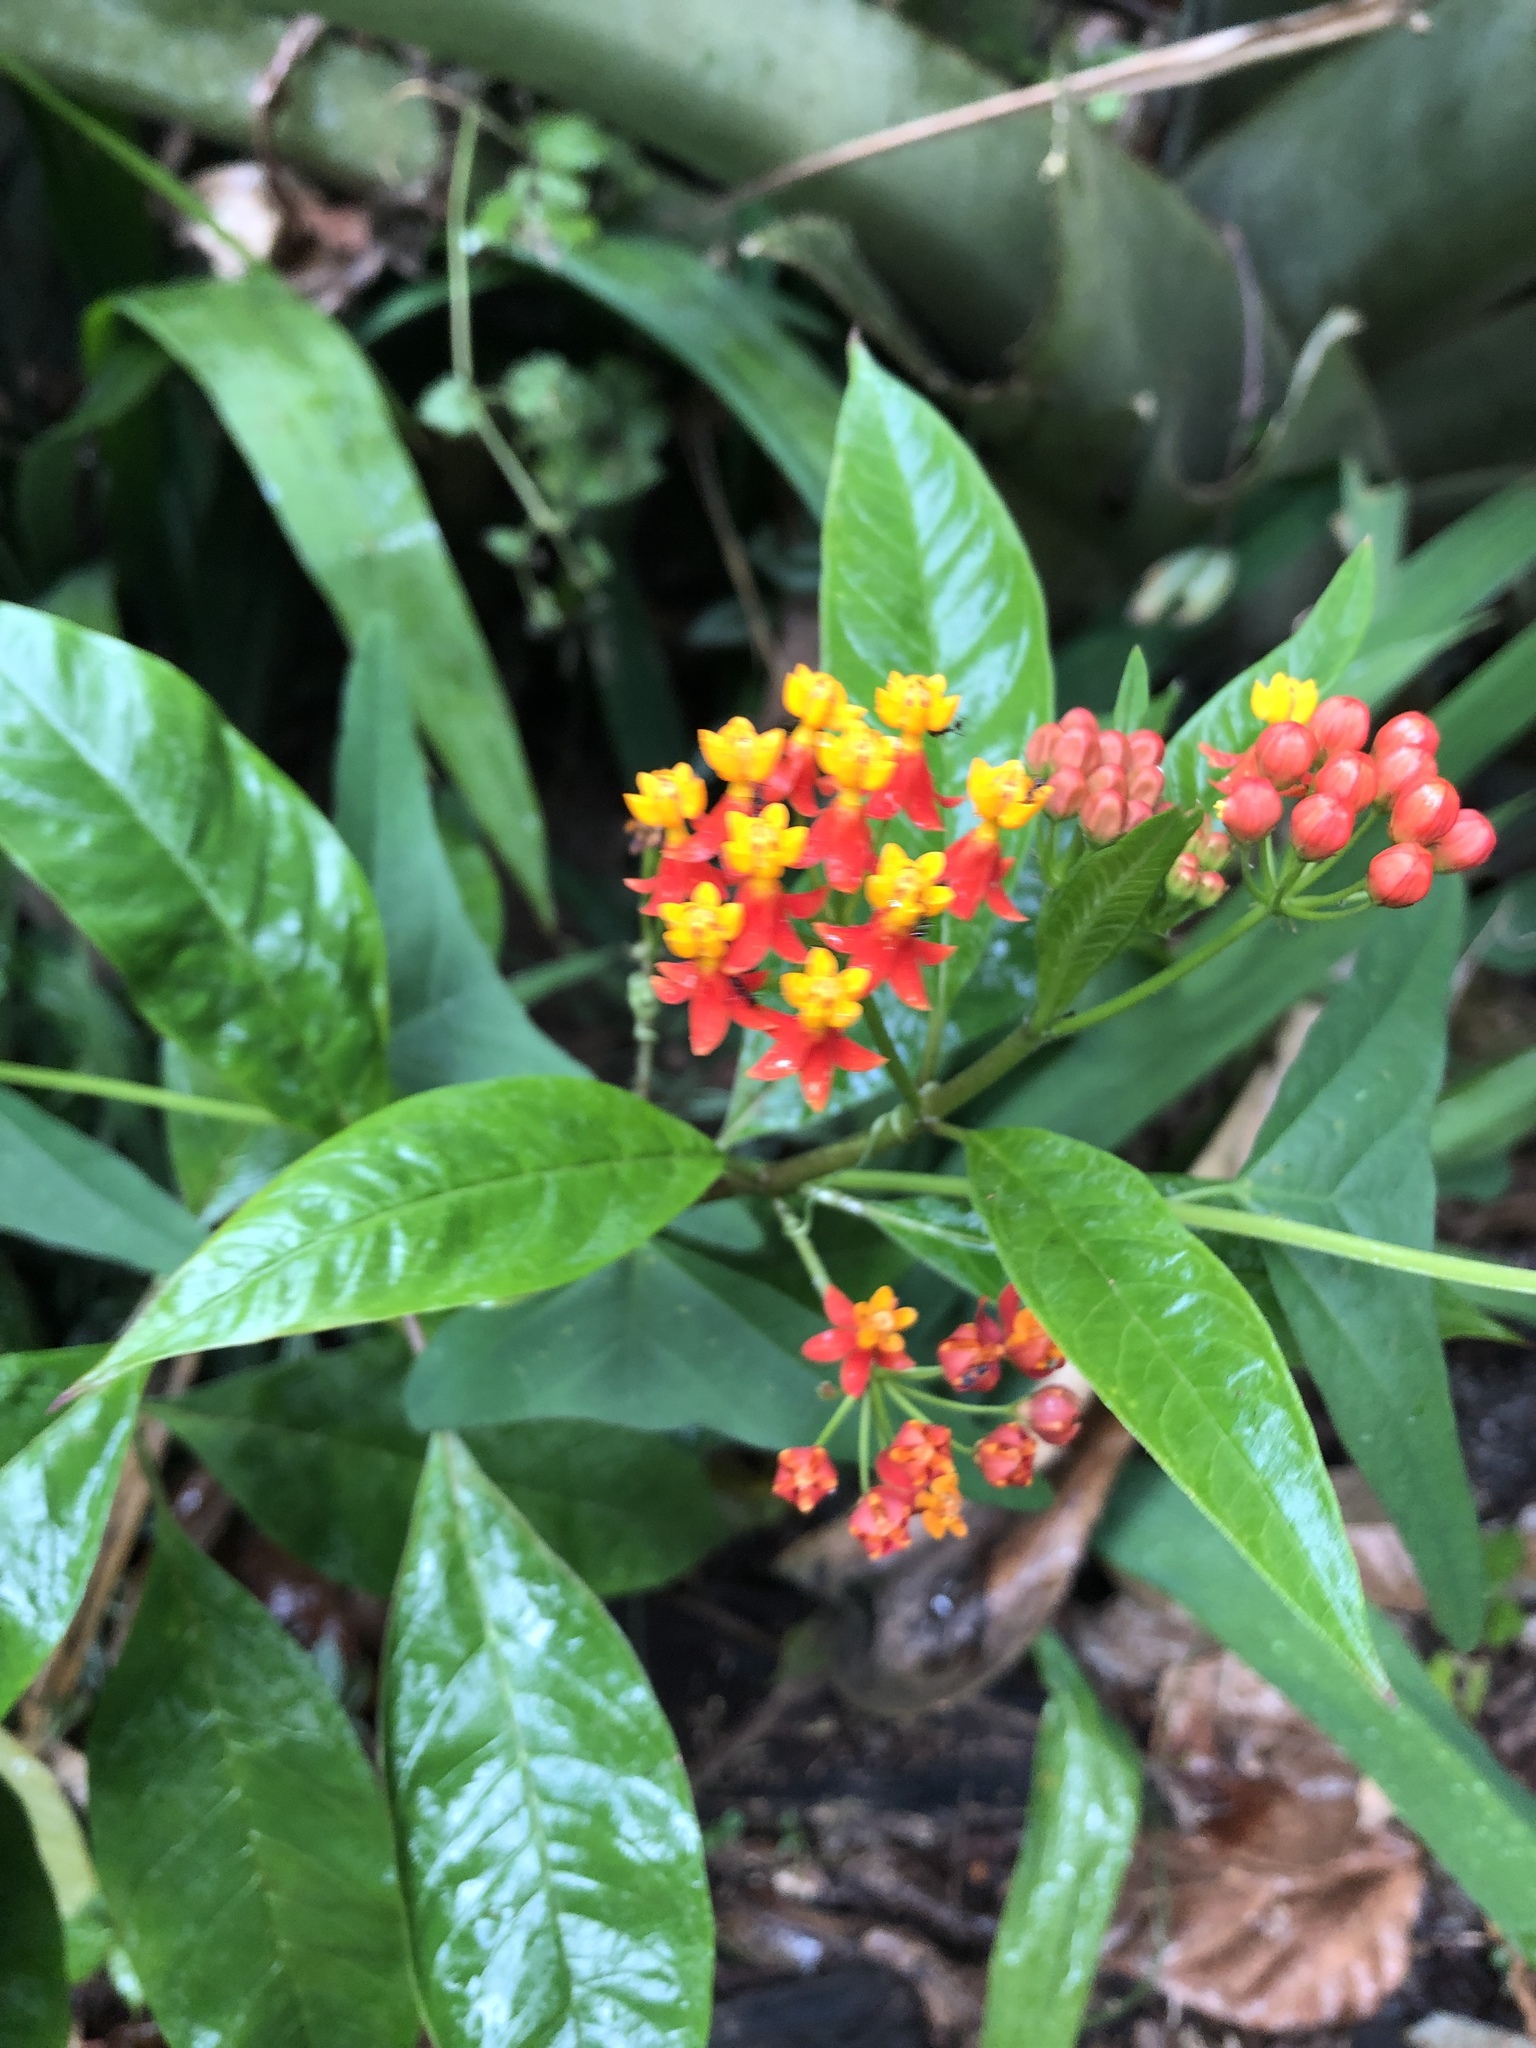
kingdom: Plantae
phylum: Tracheophyta
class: Magnoliopsida
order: Gentianales
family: Apocynaceae
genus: Asclepias
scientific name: Asclepias curassavica
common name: Bloodflower
